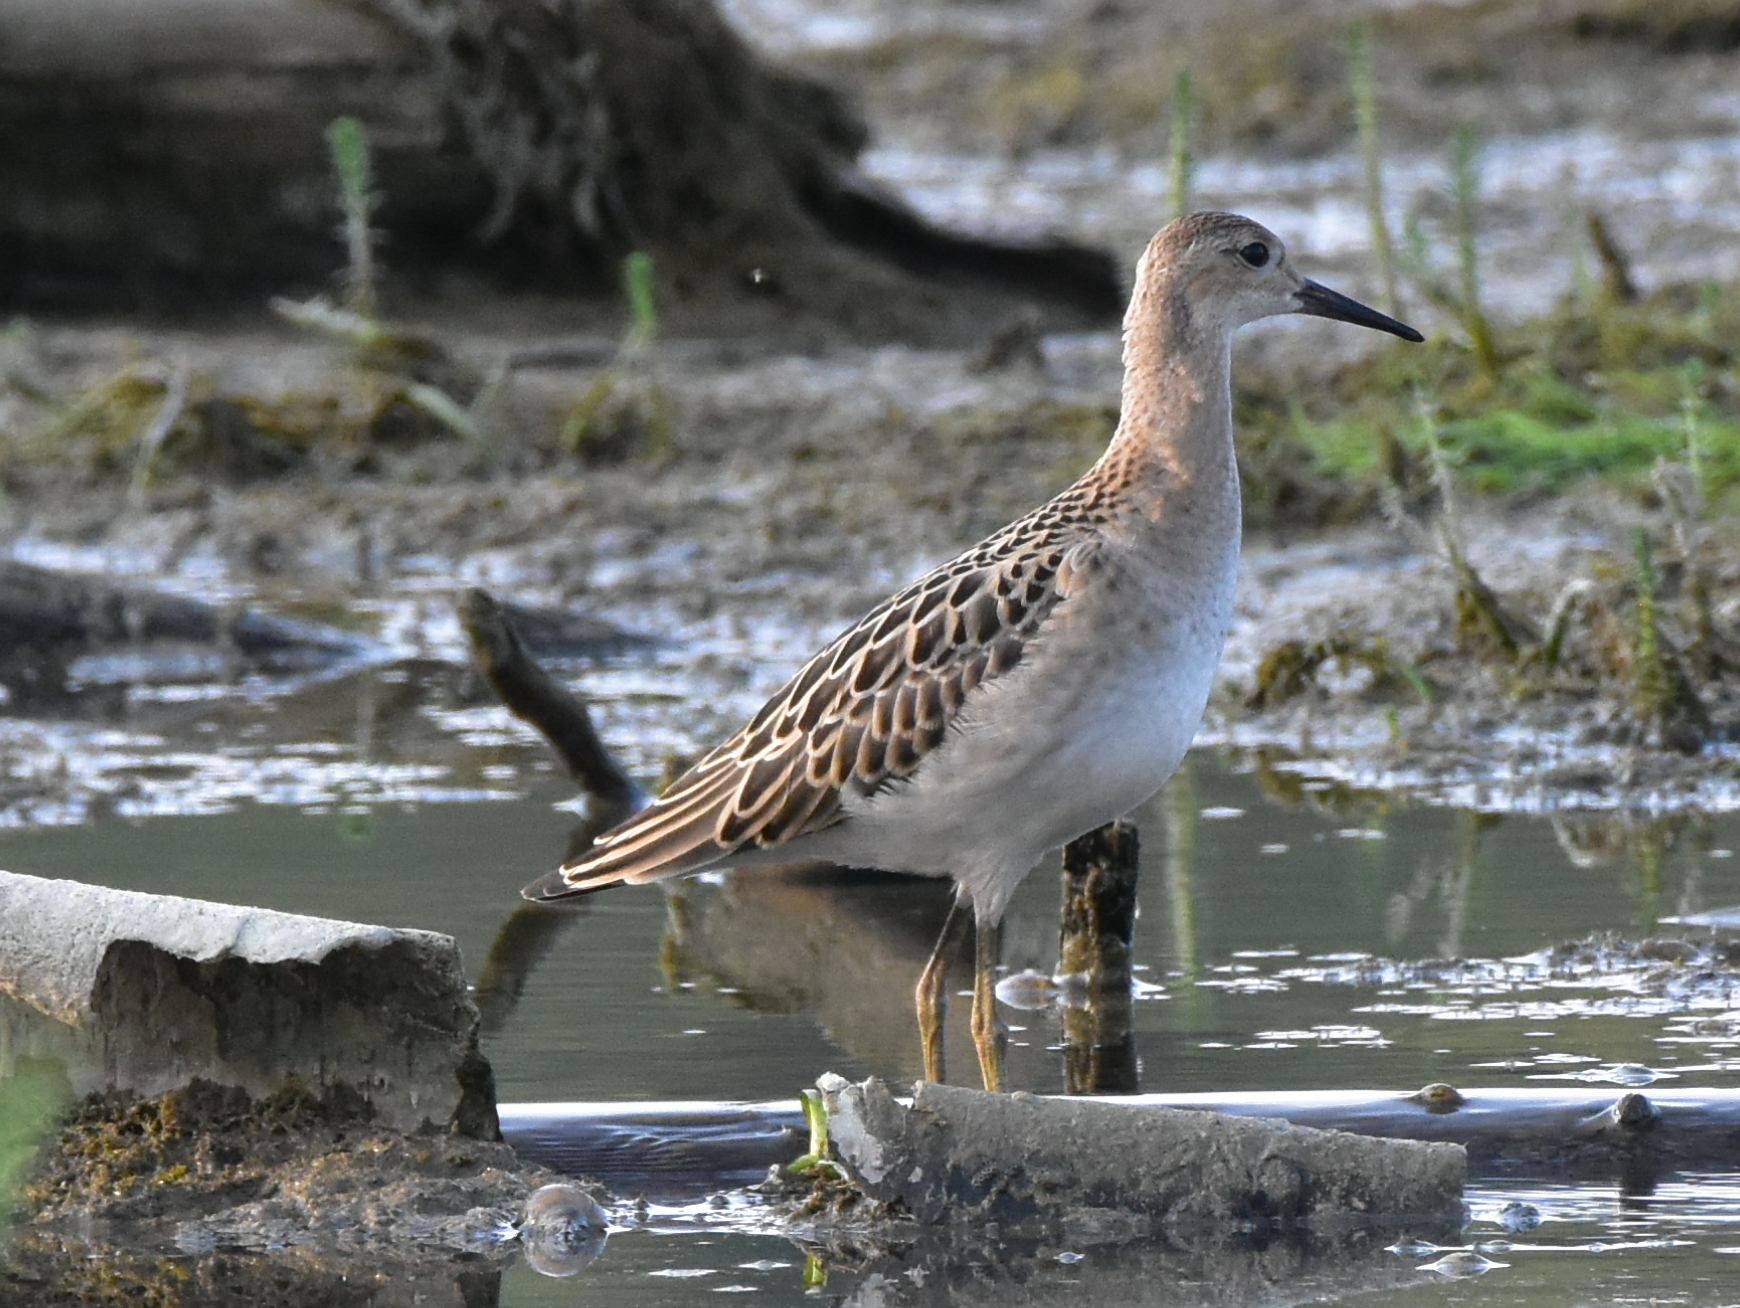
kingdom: Animalia
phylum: Chordata
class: Aves
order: Charadriiformes
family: Scolopacidae
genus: Calidris
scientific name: Calidris pugnax
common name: Ruff
